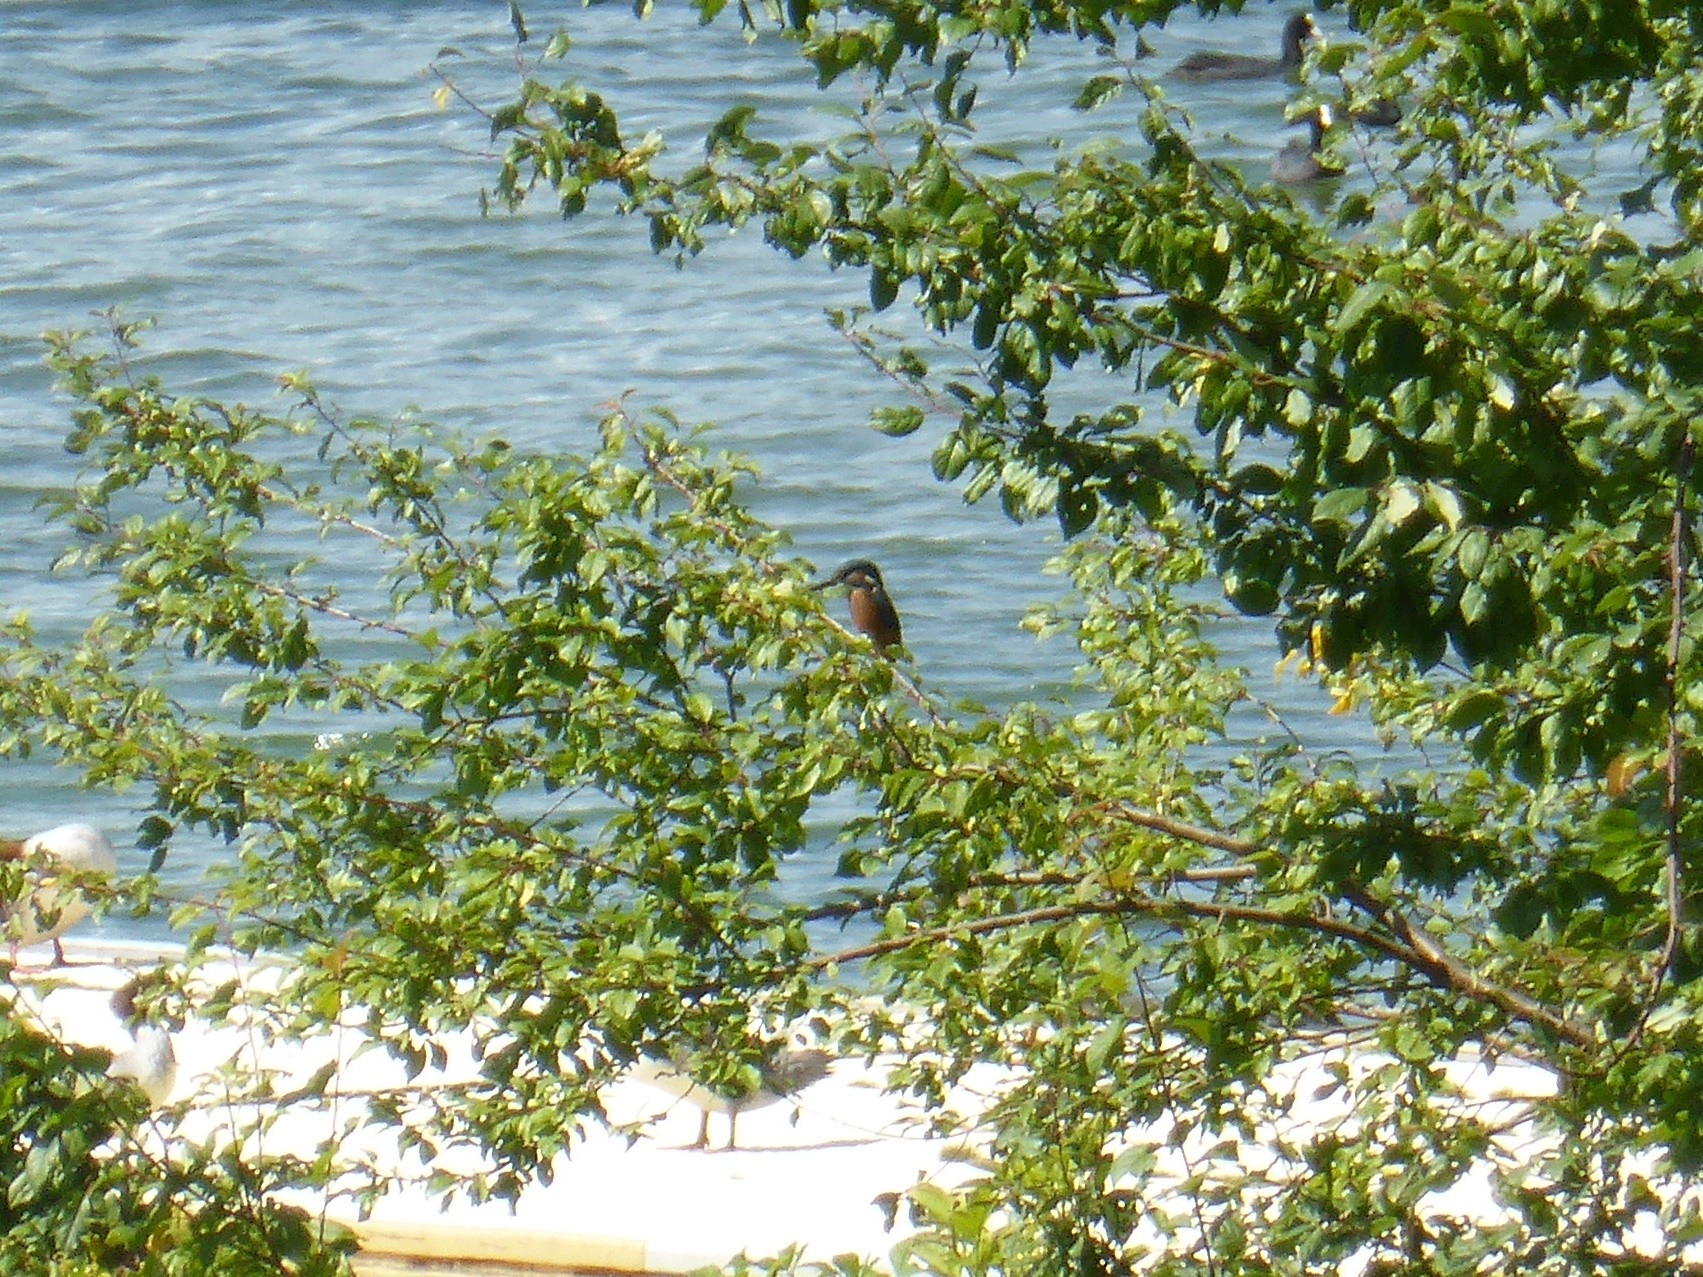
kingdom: Animalia
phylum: Chordata
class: Aves
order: Coraciiformes
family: Alcedinidae
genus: Alcedo
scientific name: Alcedo atthis
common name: Common kingfisher
